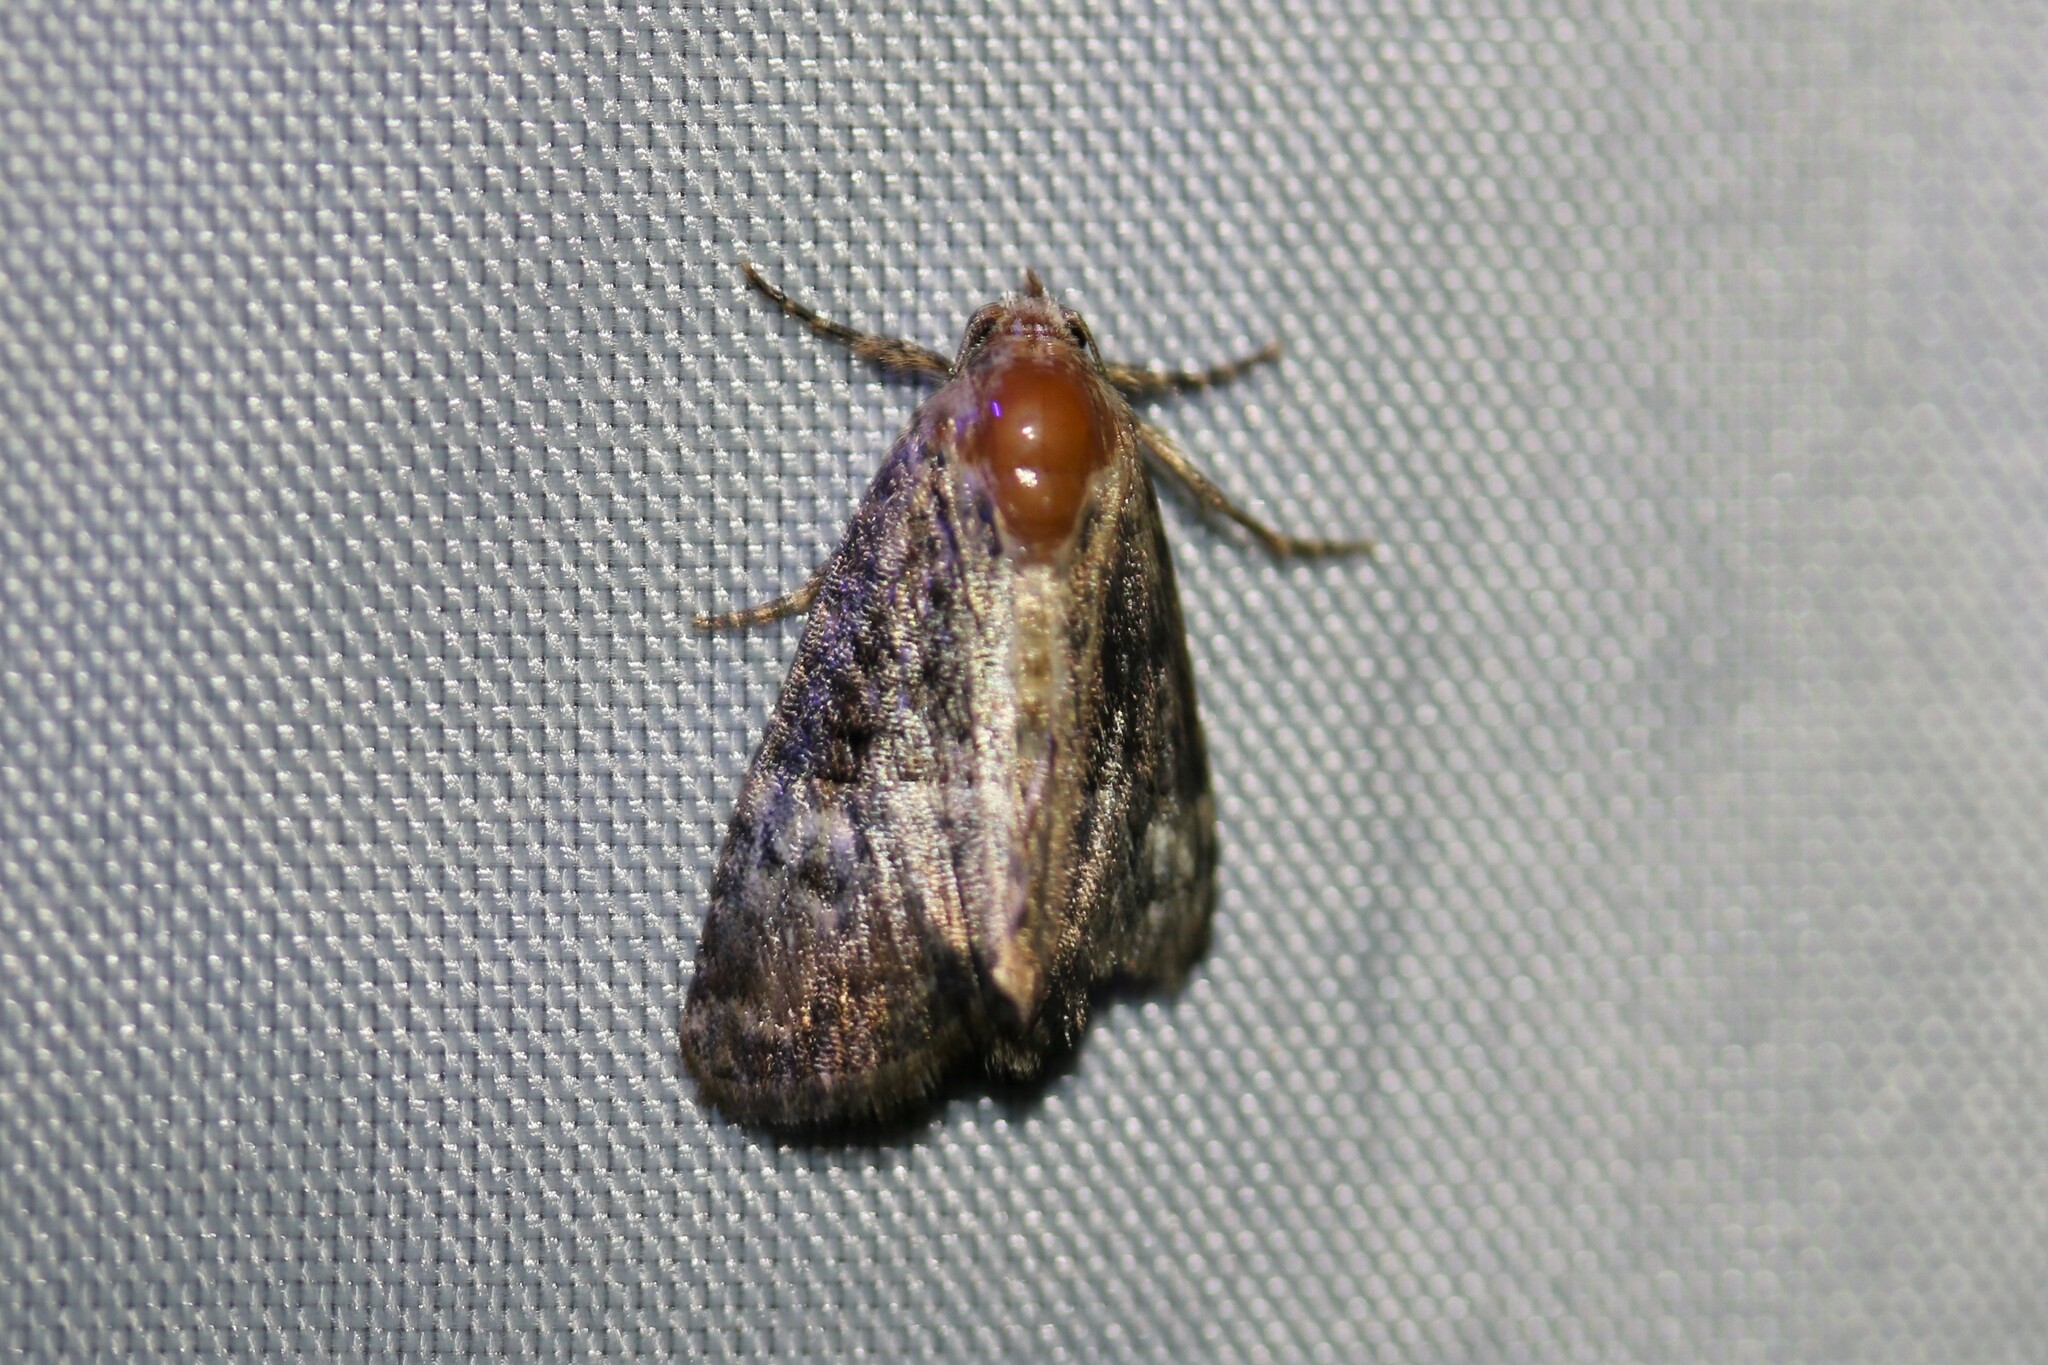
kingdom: Animalia
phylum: Arthropoda
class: Insecta
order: Lepidoptera
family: Noctuidae
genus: Mesoligia
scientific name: Mesoligia furuncula
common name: Cloaked minor
